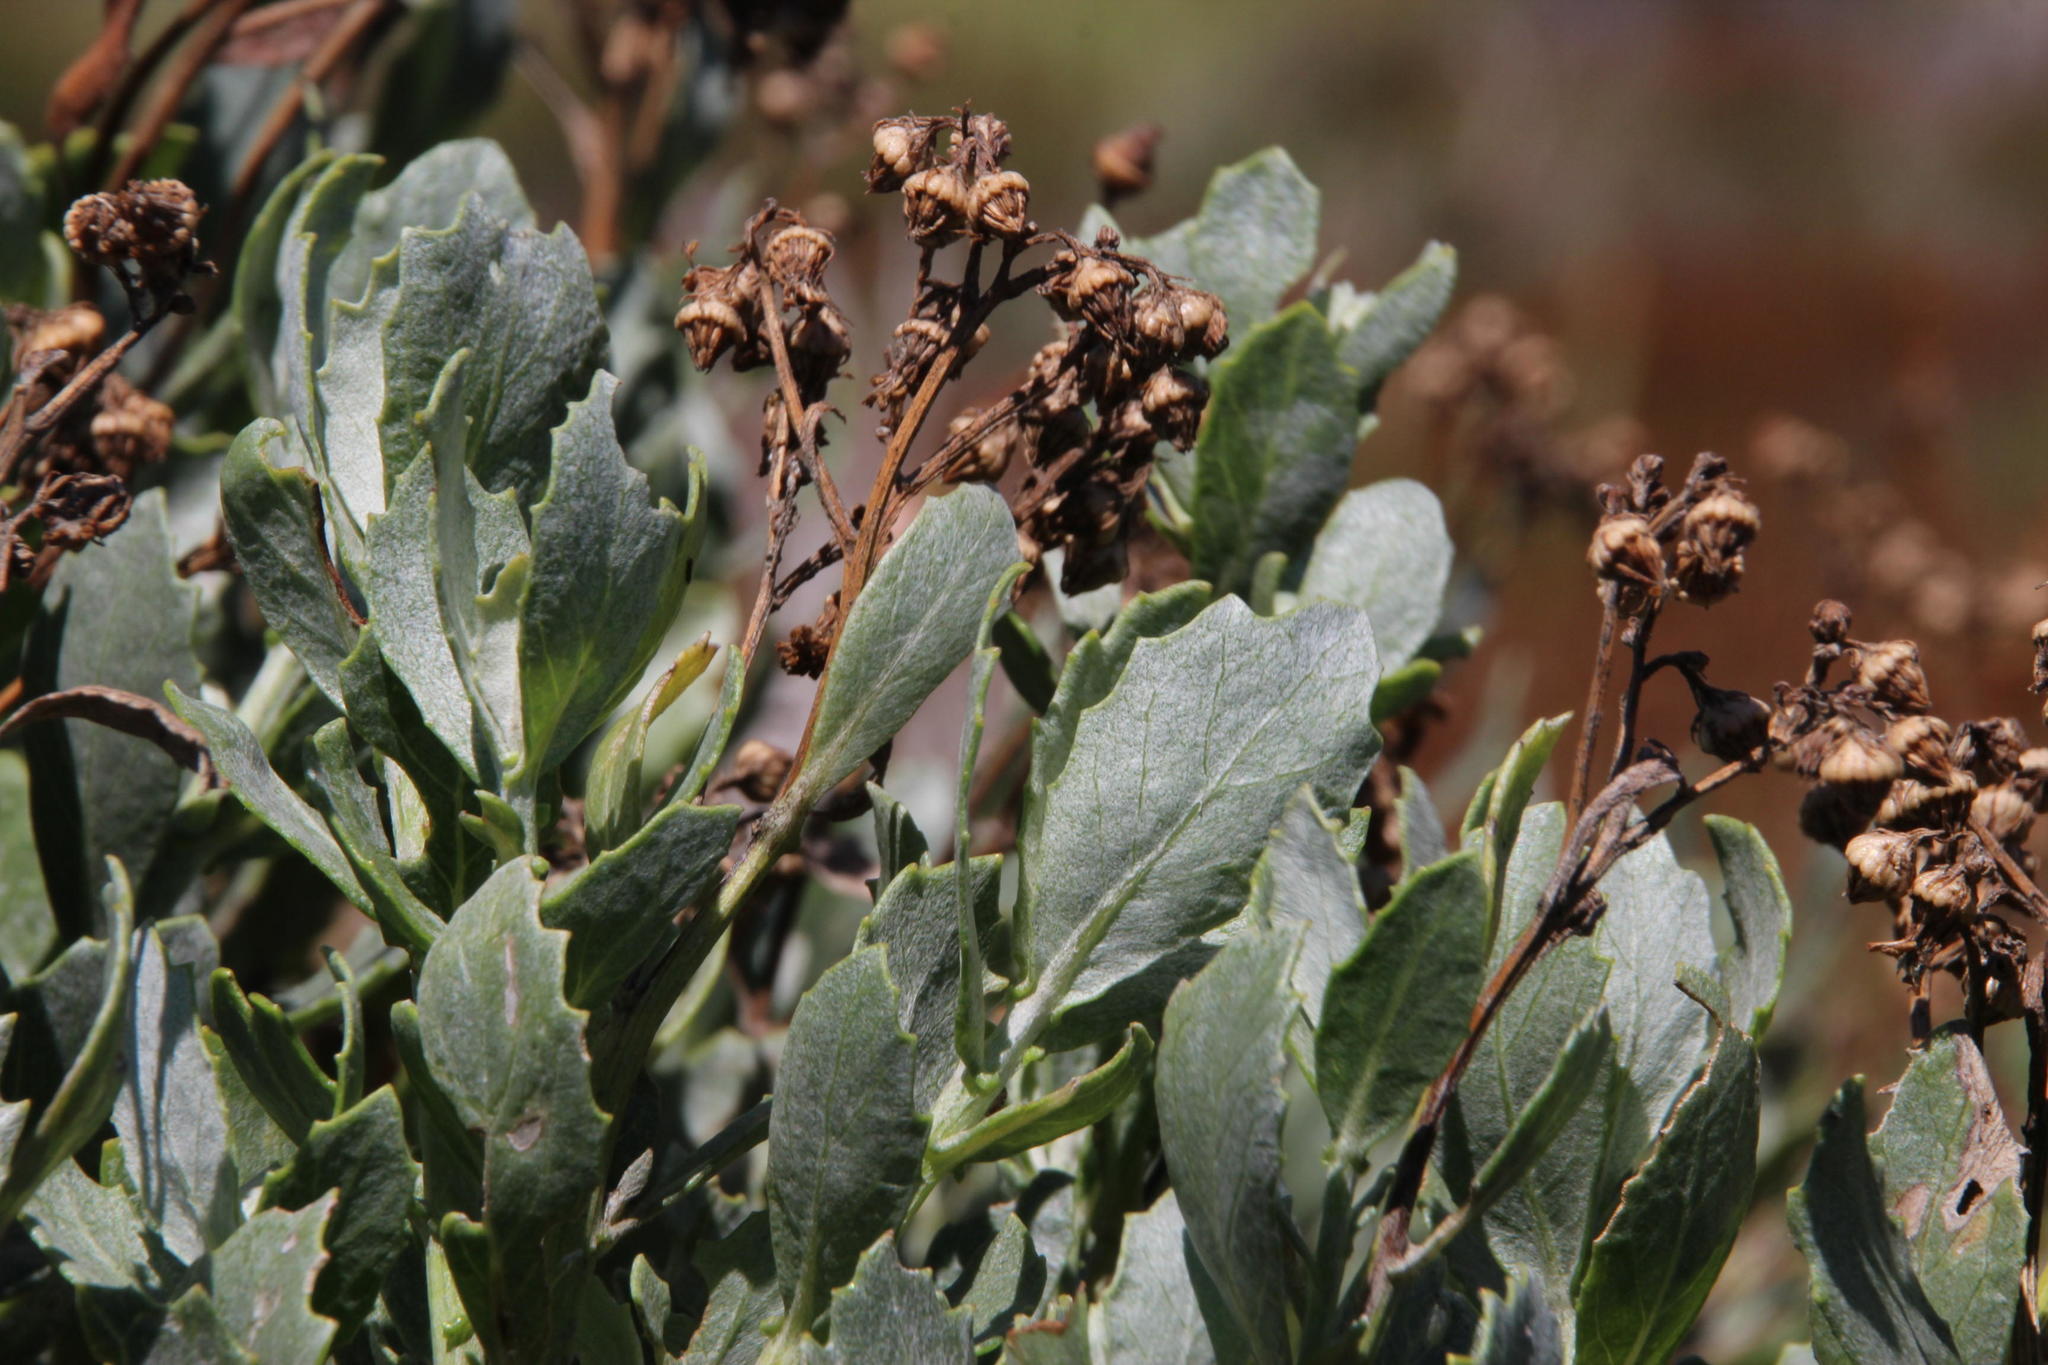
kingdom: Plantae
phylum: Tracheophyta
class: Magnoliopsida
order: Asterales
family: Asteraceae
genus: Senecio
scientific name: Senecio halimifolius
